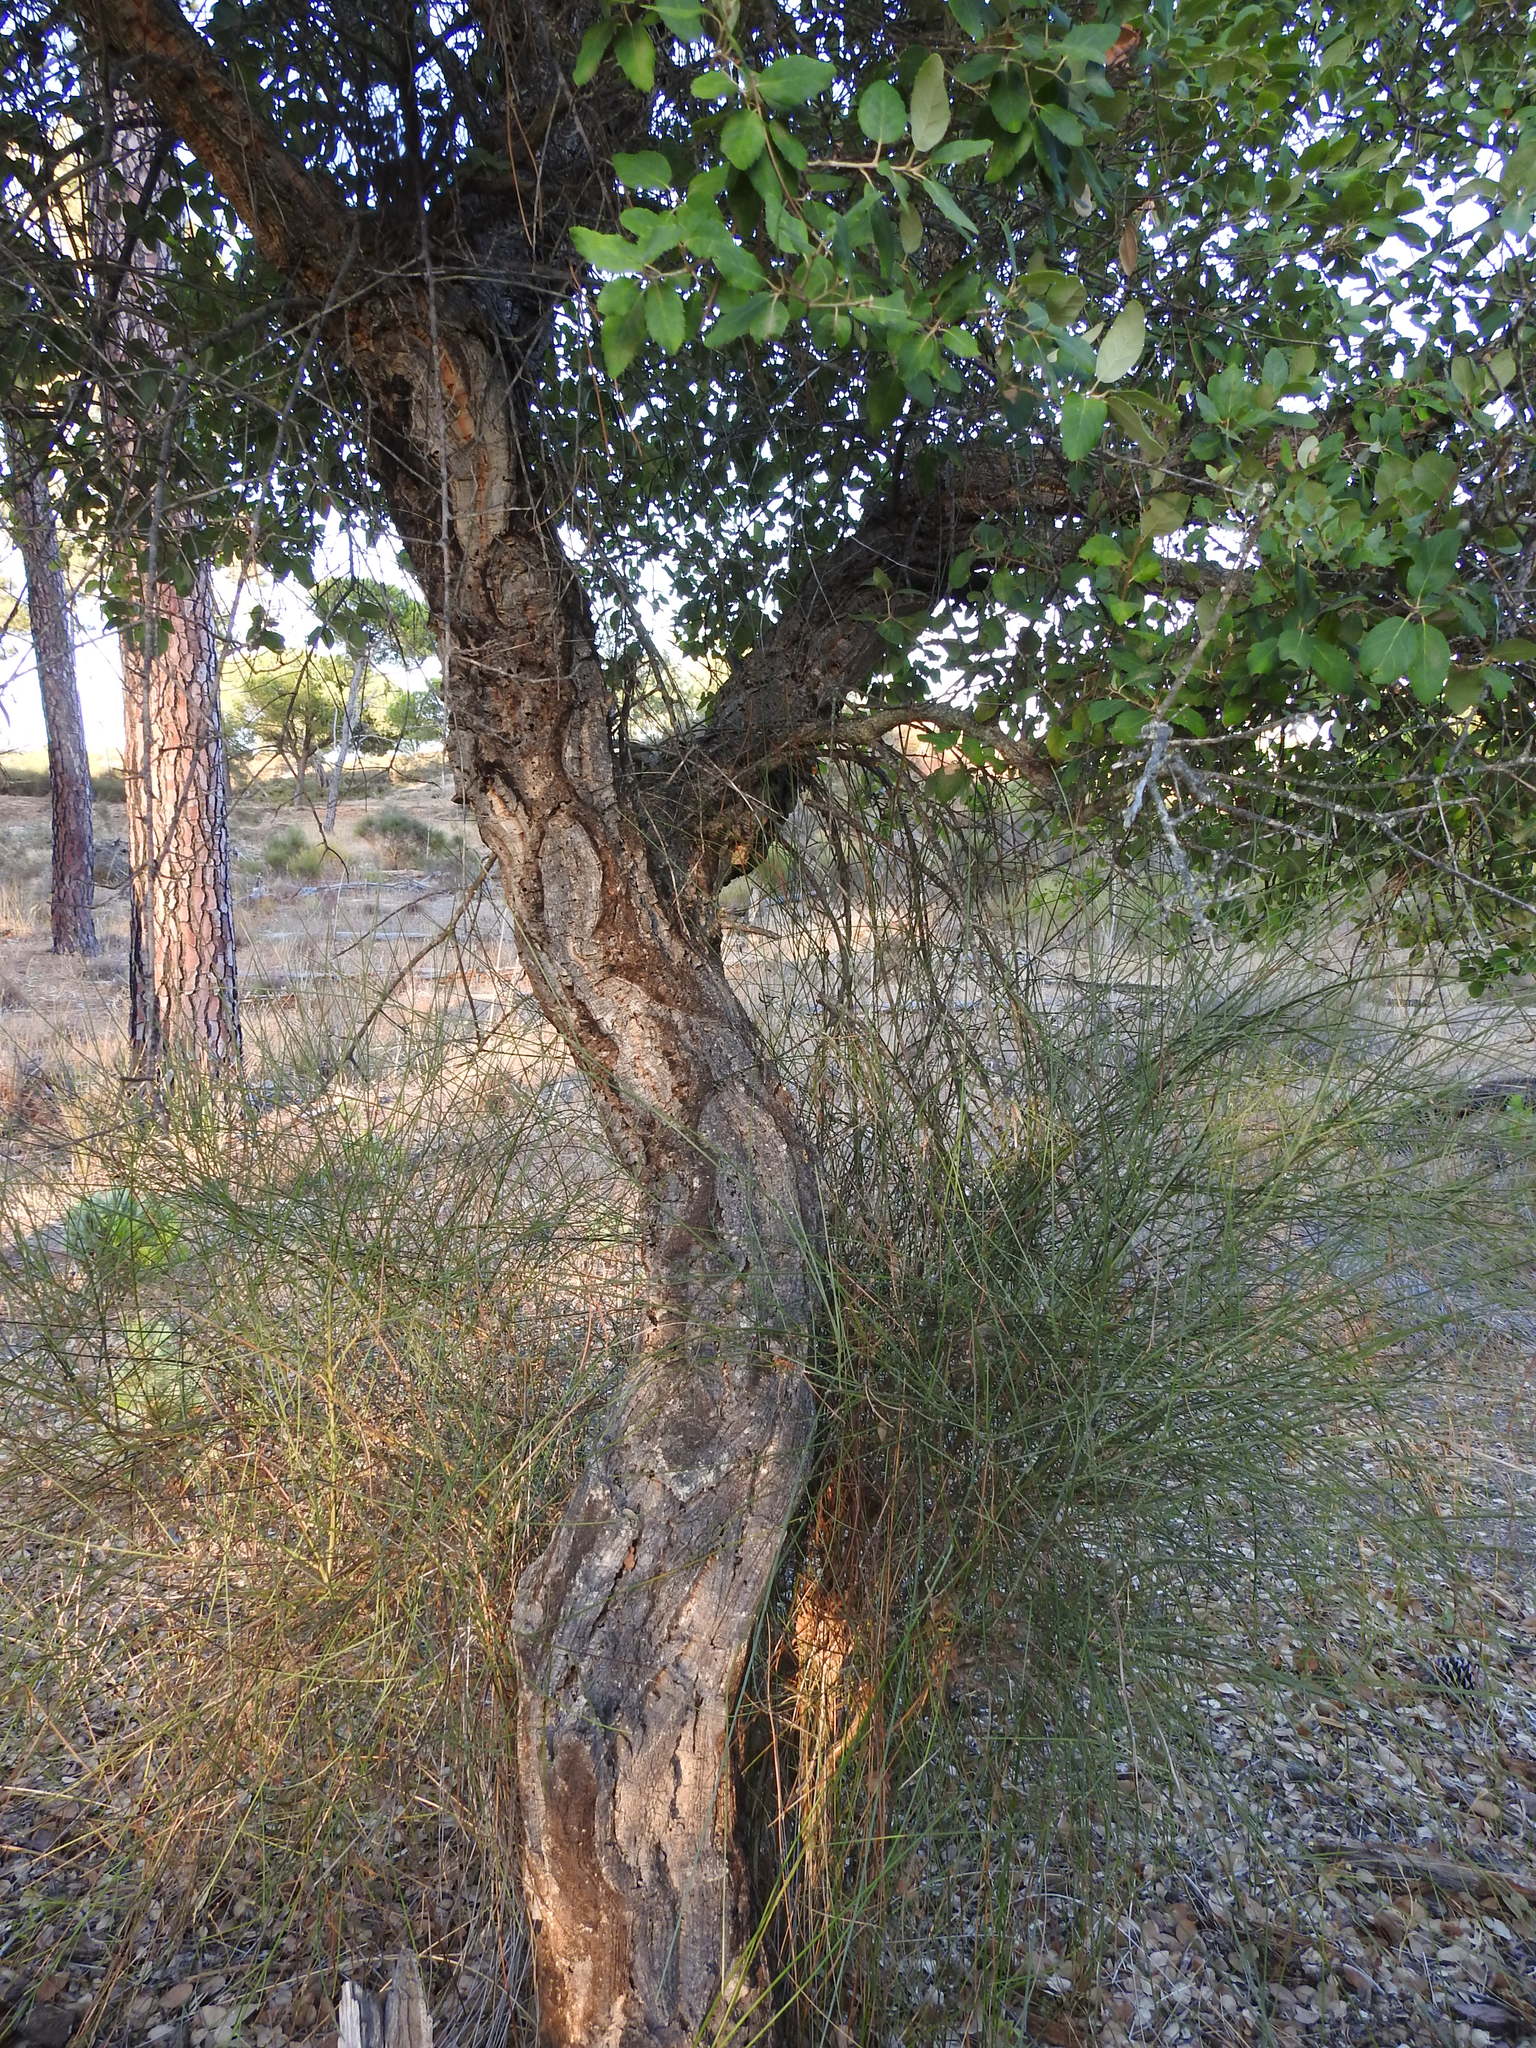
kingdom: Plantae
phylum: Tracheophyta
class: Magnoliopsida
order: Fagales
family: Fagaceae
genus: Quercus
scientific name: Quercus suber
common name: Cork oak
